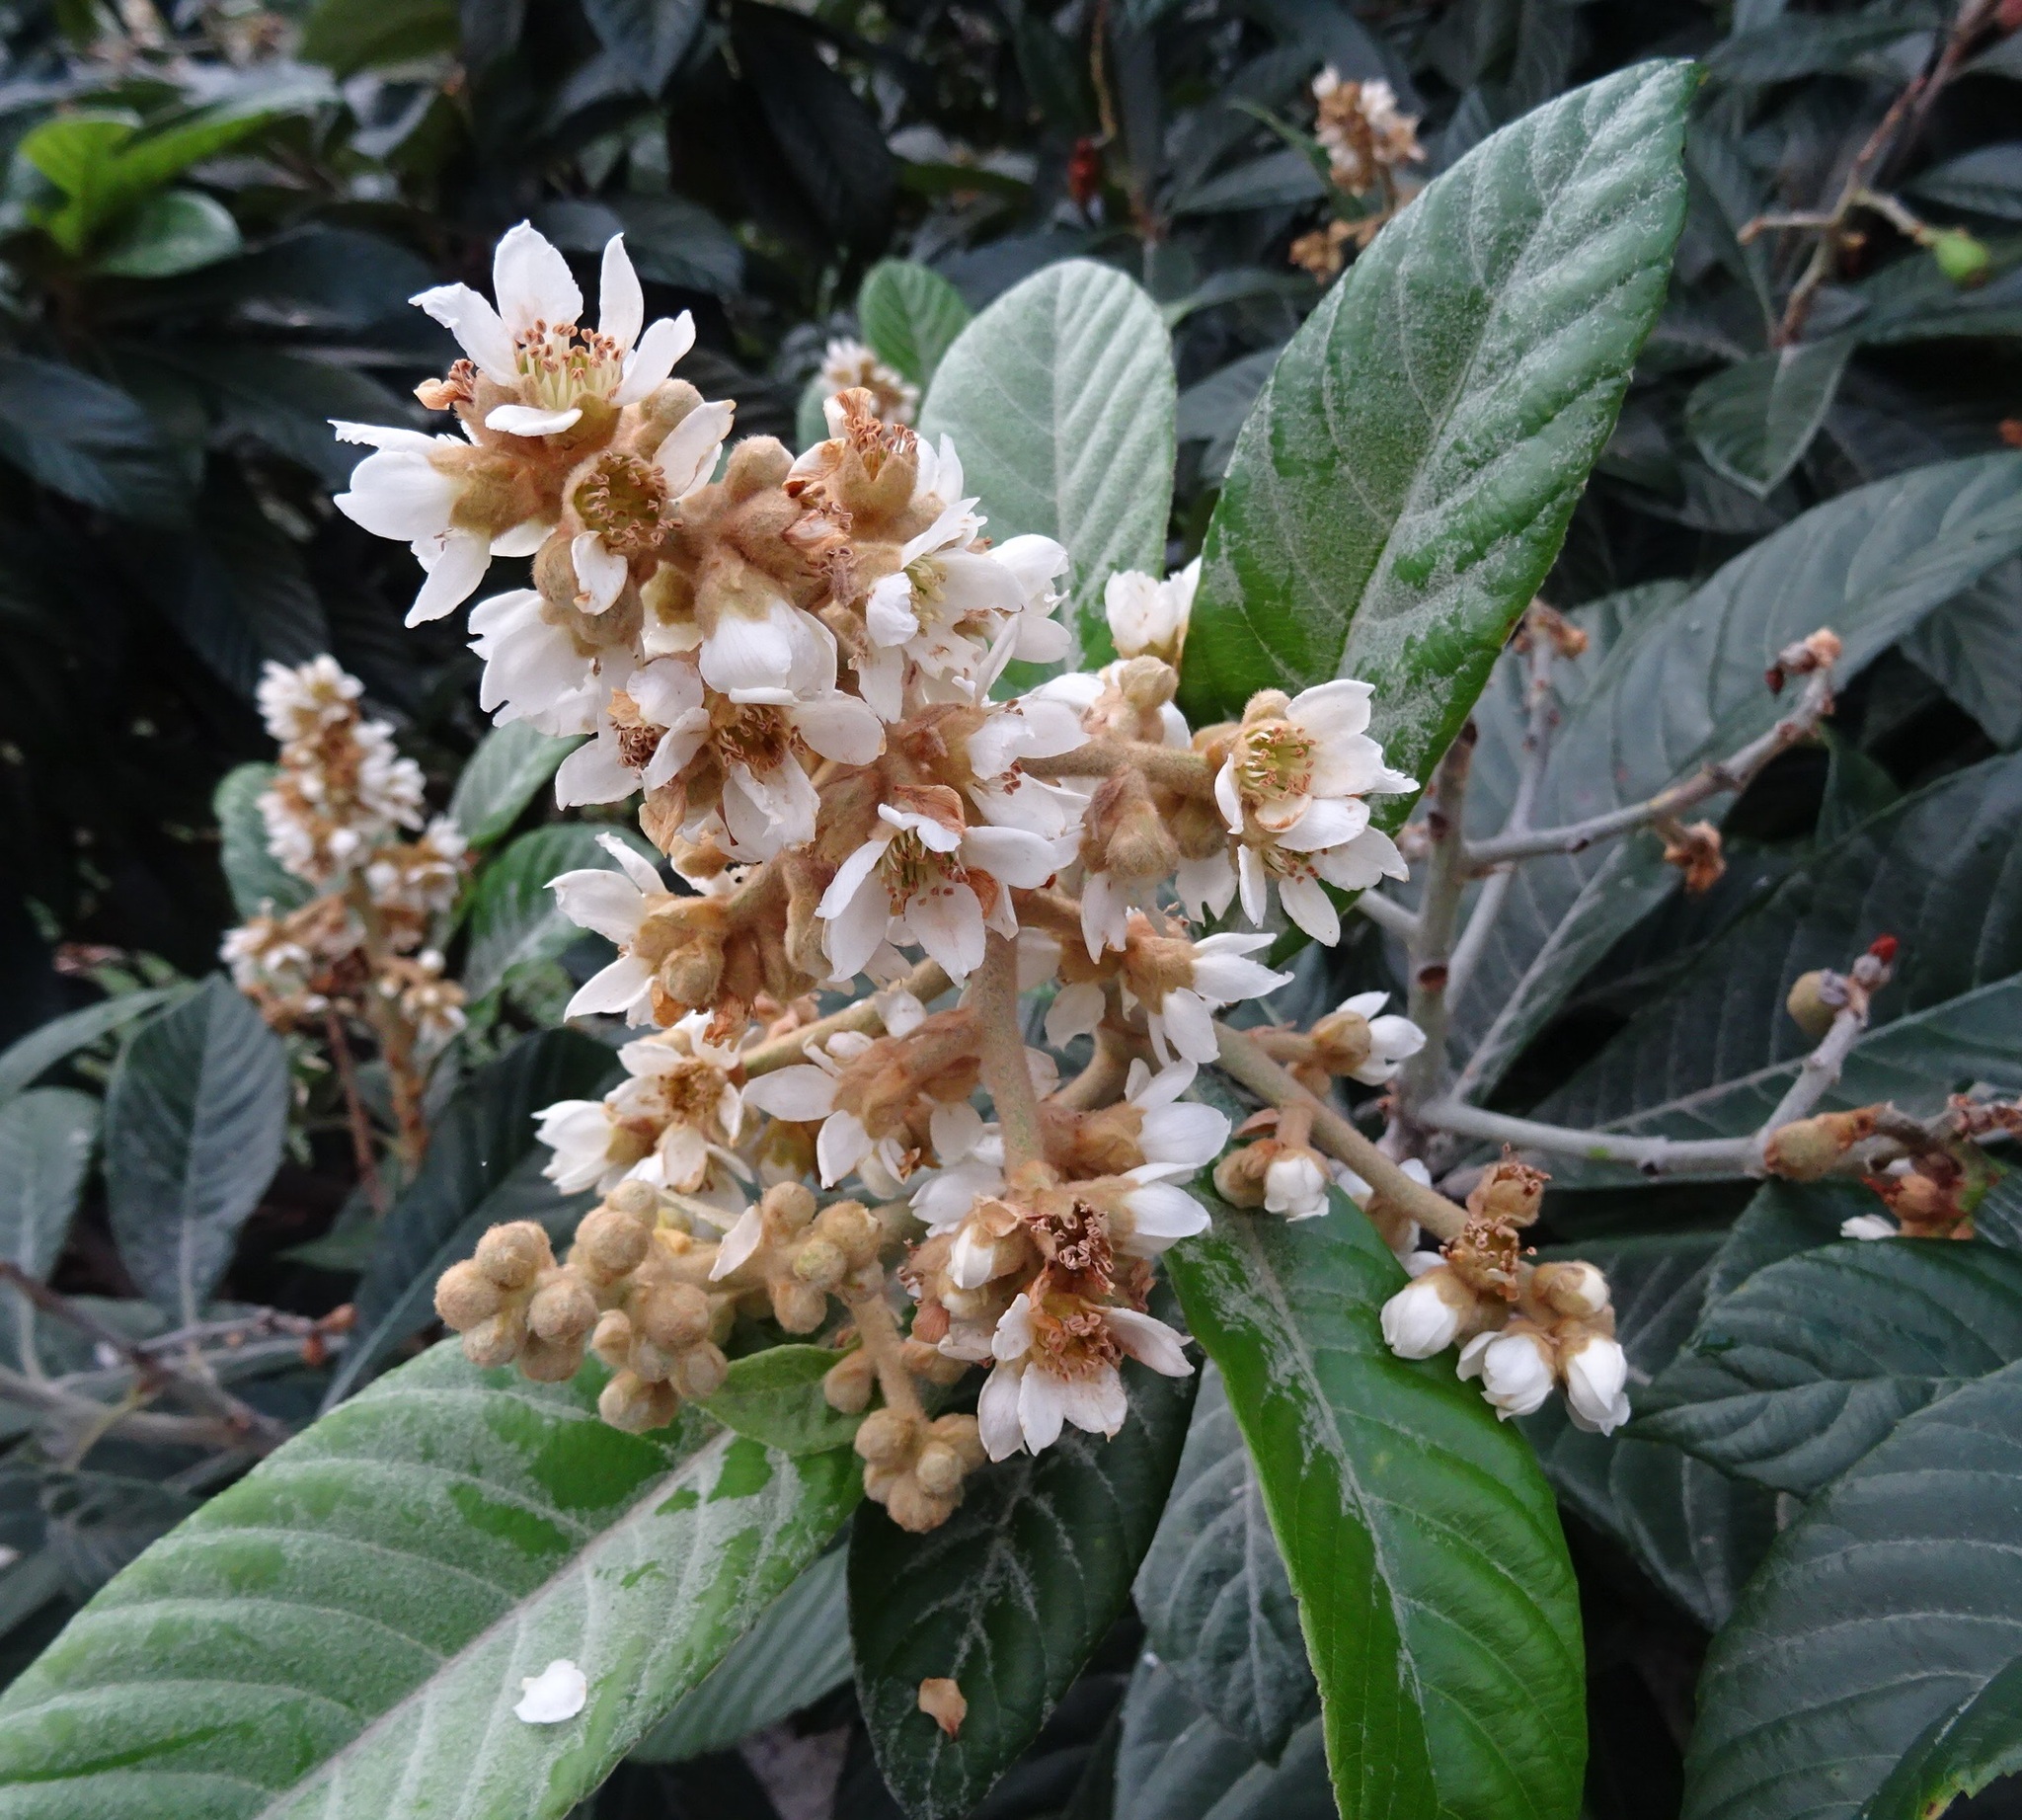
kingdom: Plantae
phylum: Tracheophyta
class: Magnoliopsida
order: Rosales
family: Rosaceae
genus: Rhaphiolepis
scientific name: Rhaphiolepis bibas
